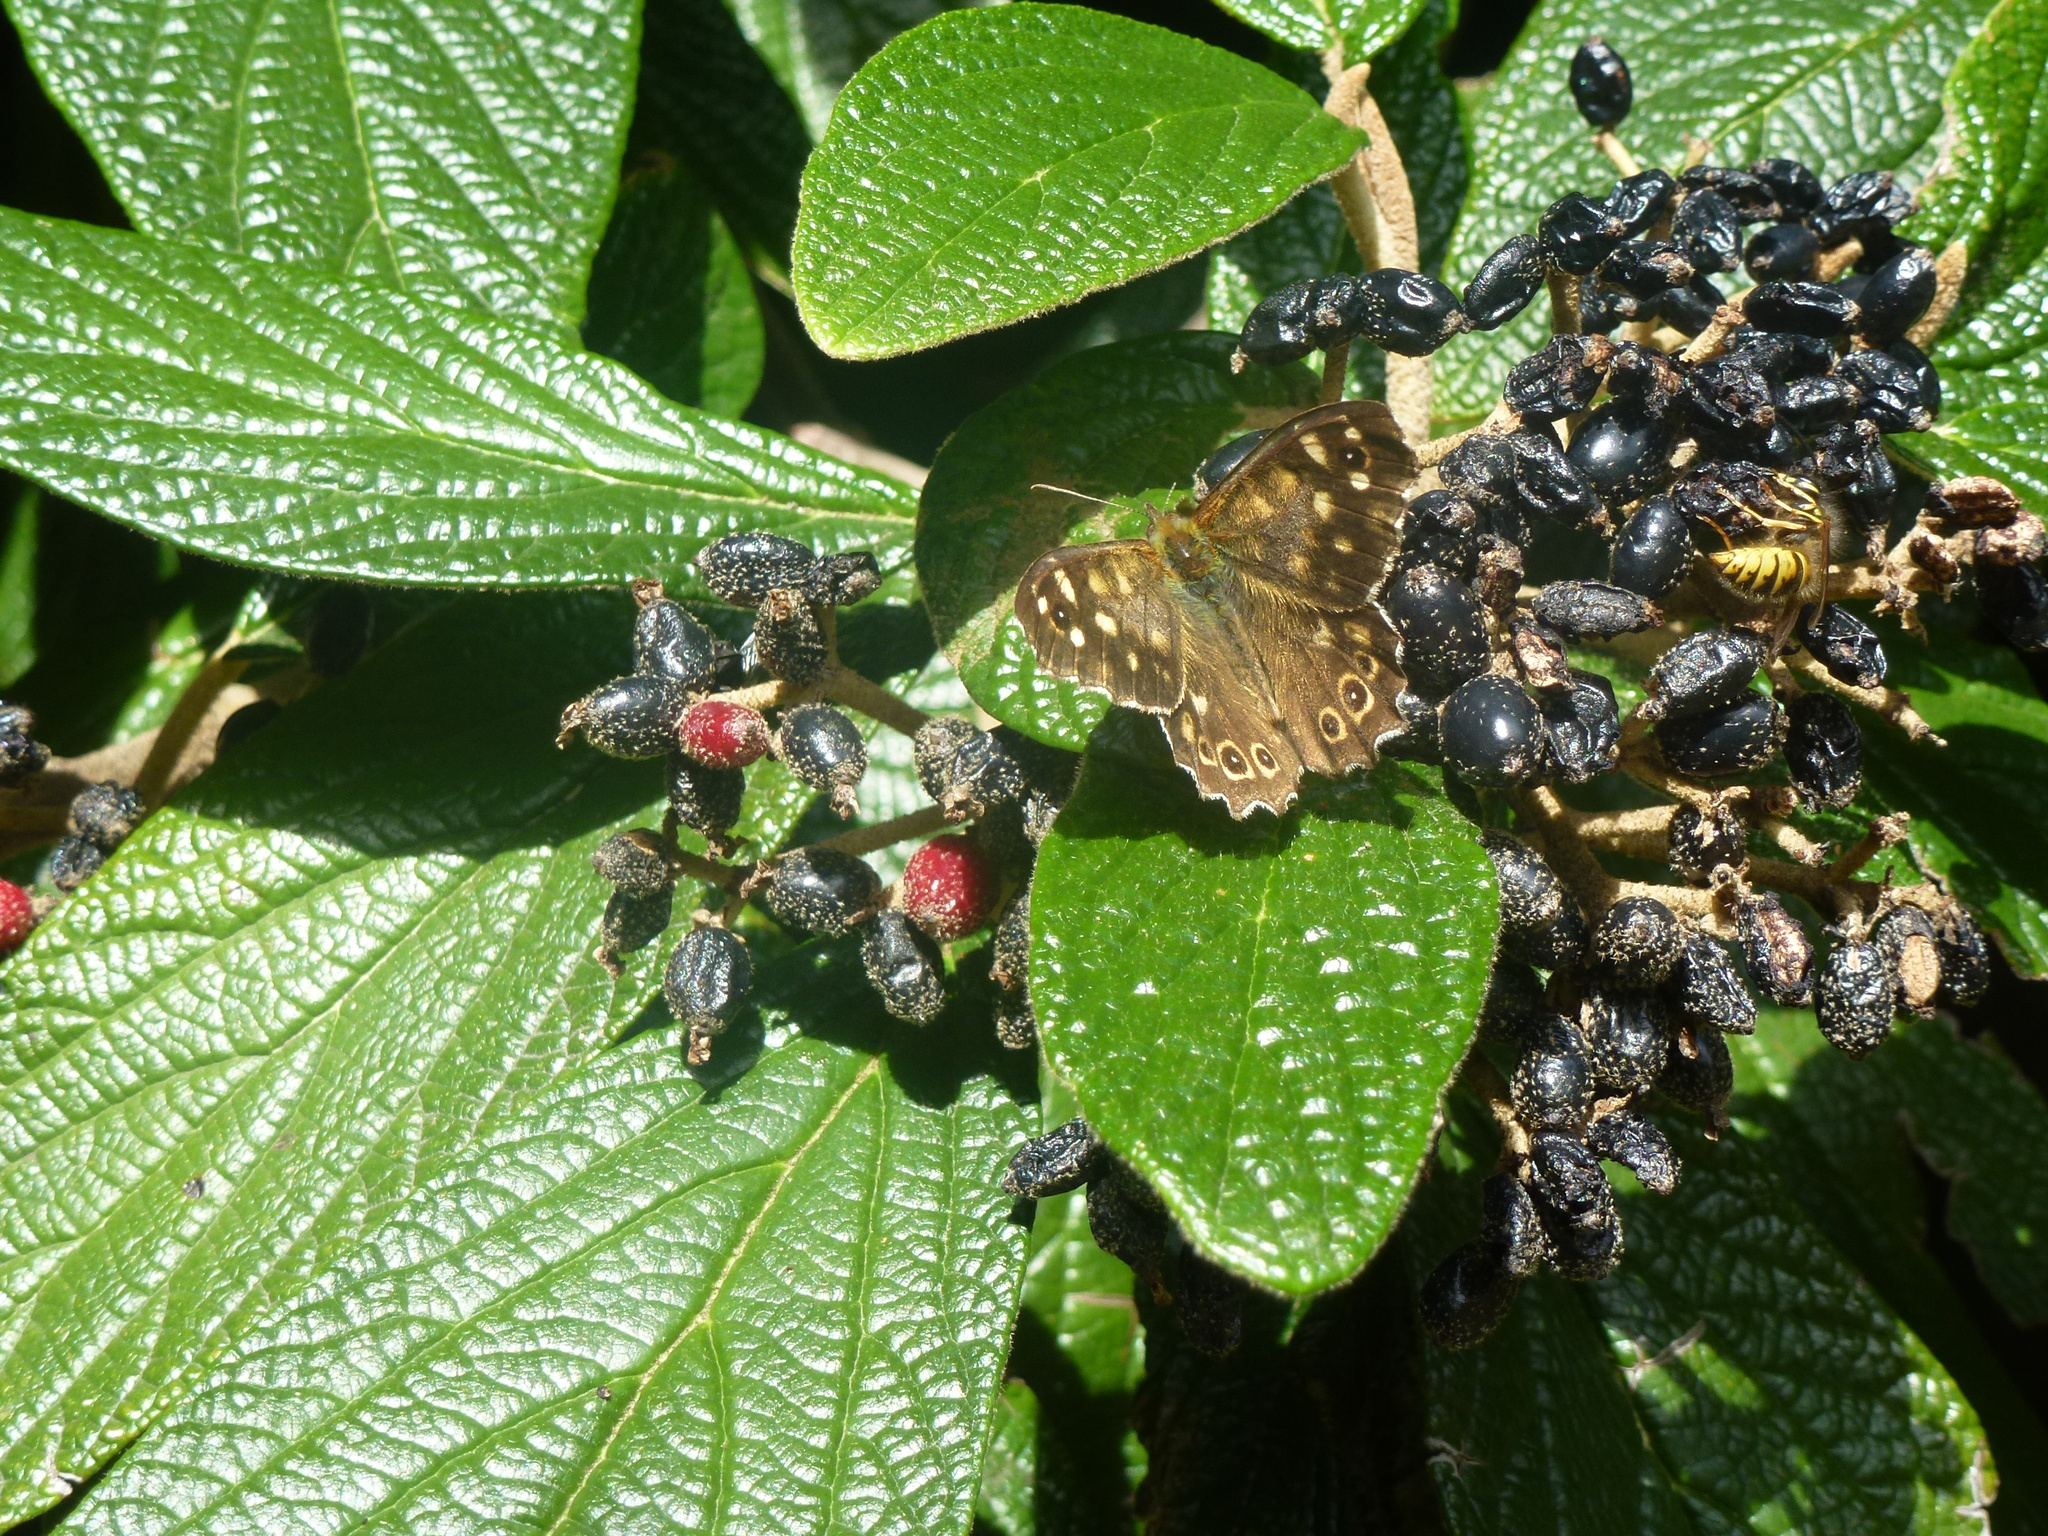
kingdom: Animalia
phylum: Arthropoda
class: Insecta
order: Lepidoptera
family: Nymphalidae
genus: Pararge
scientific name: Pararge aegeria
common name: Speckled wood
